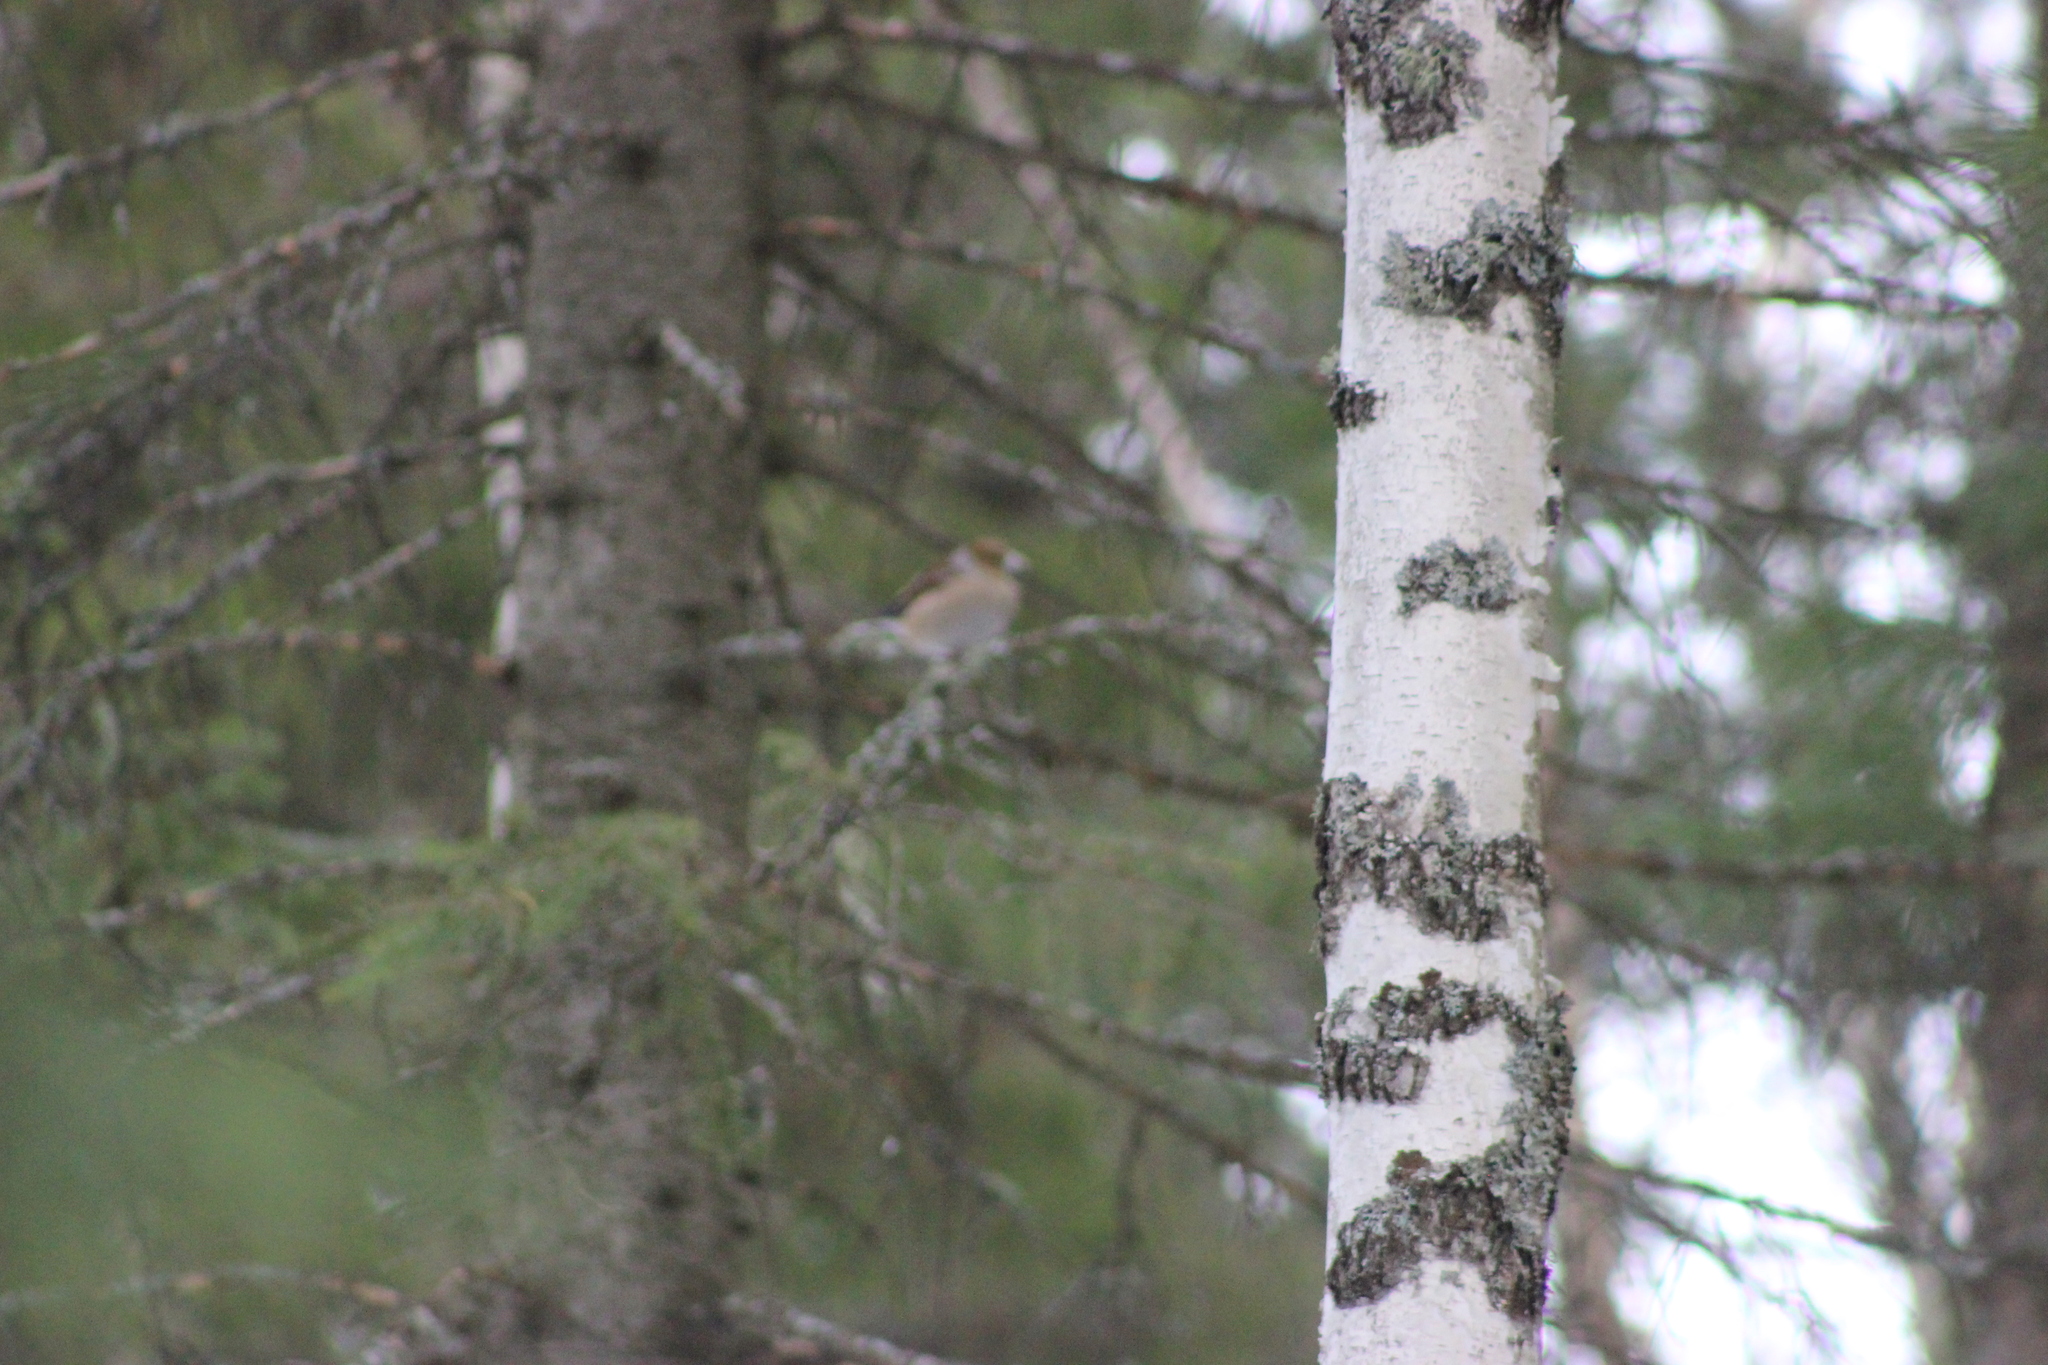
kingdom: Animalia
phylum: Chordata
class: Aves
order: Passeriformes
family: Fringillidae
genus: Coccothraustes
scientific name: Coccothraustes coccothraustes
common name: Hawfinch
